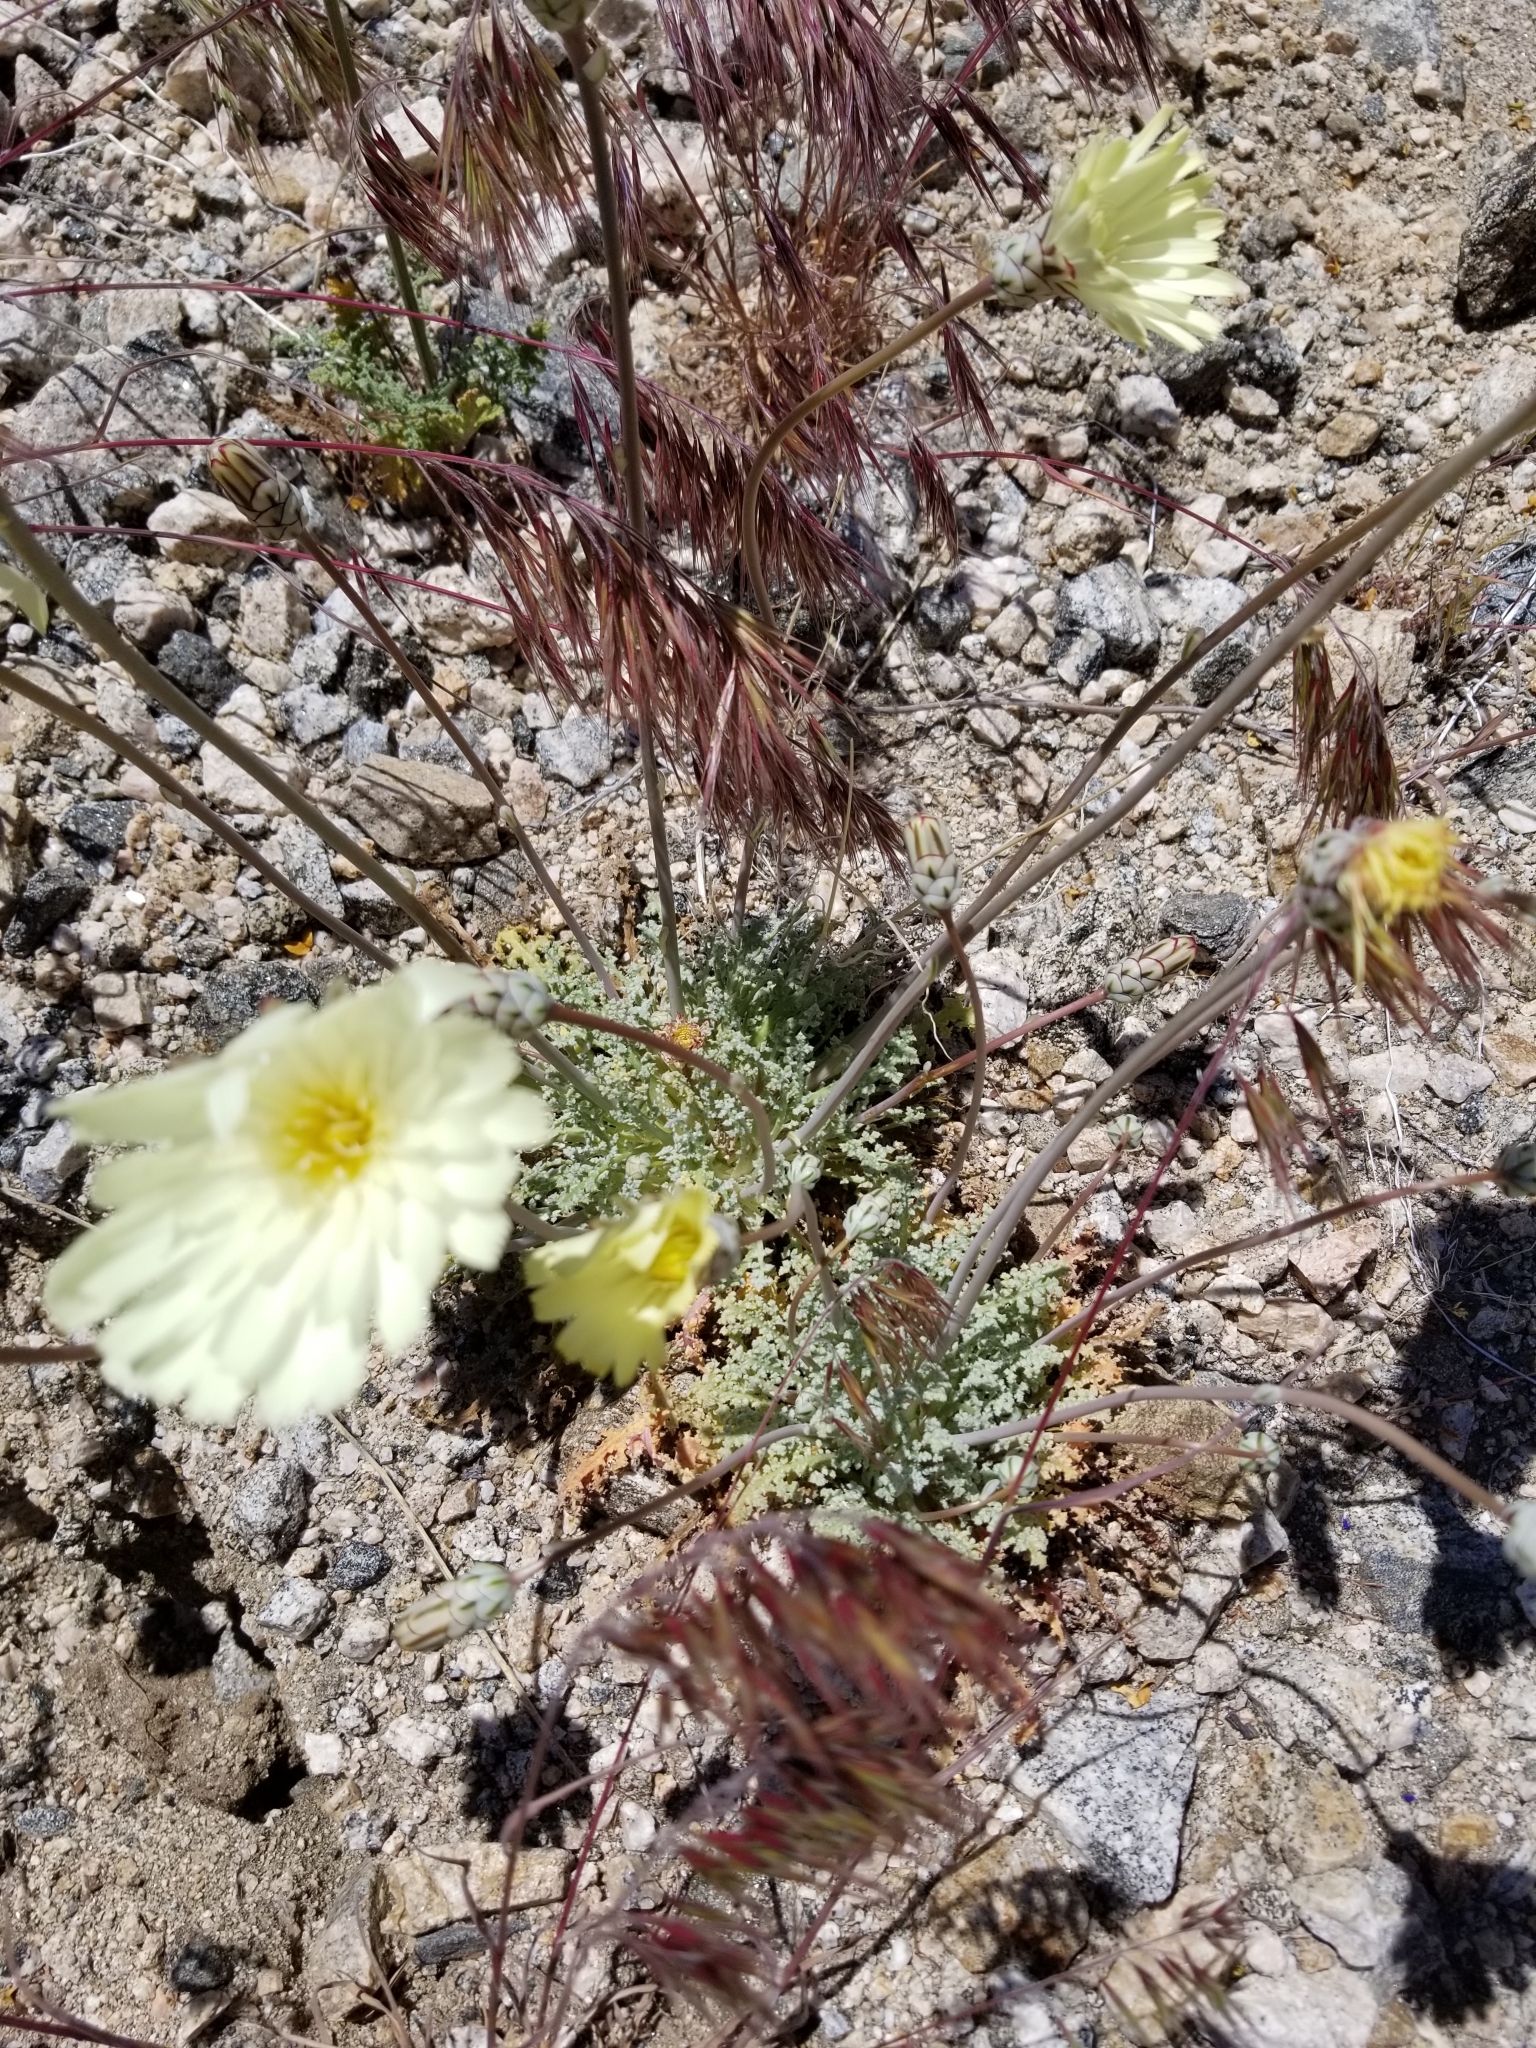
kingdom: Plantae
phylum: Tracheophyta
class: Magnoliopsida
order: Asterales
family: Asteraceae
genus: Anisocoma
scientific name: Anisocoma acaulis
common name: Scalebud
